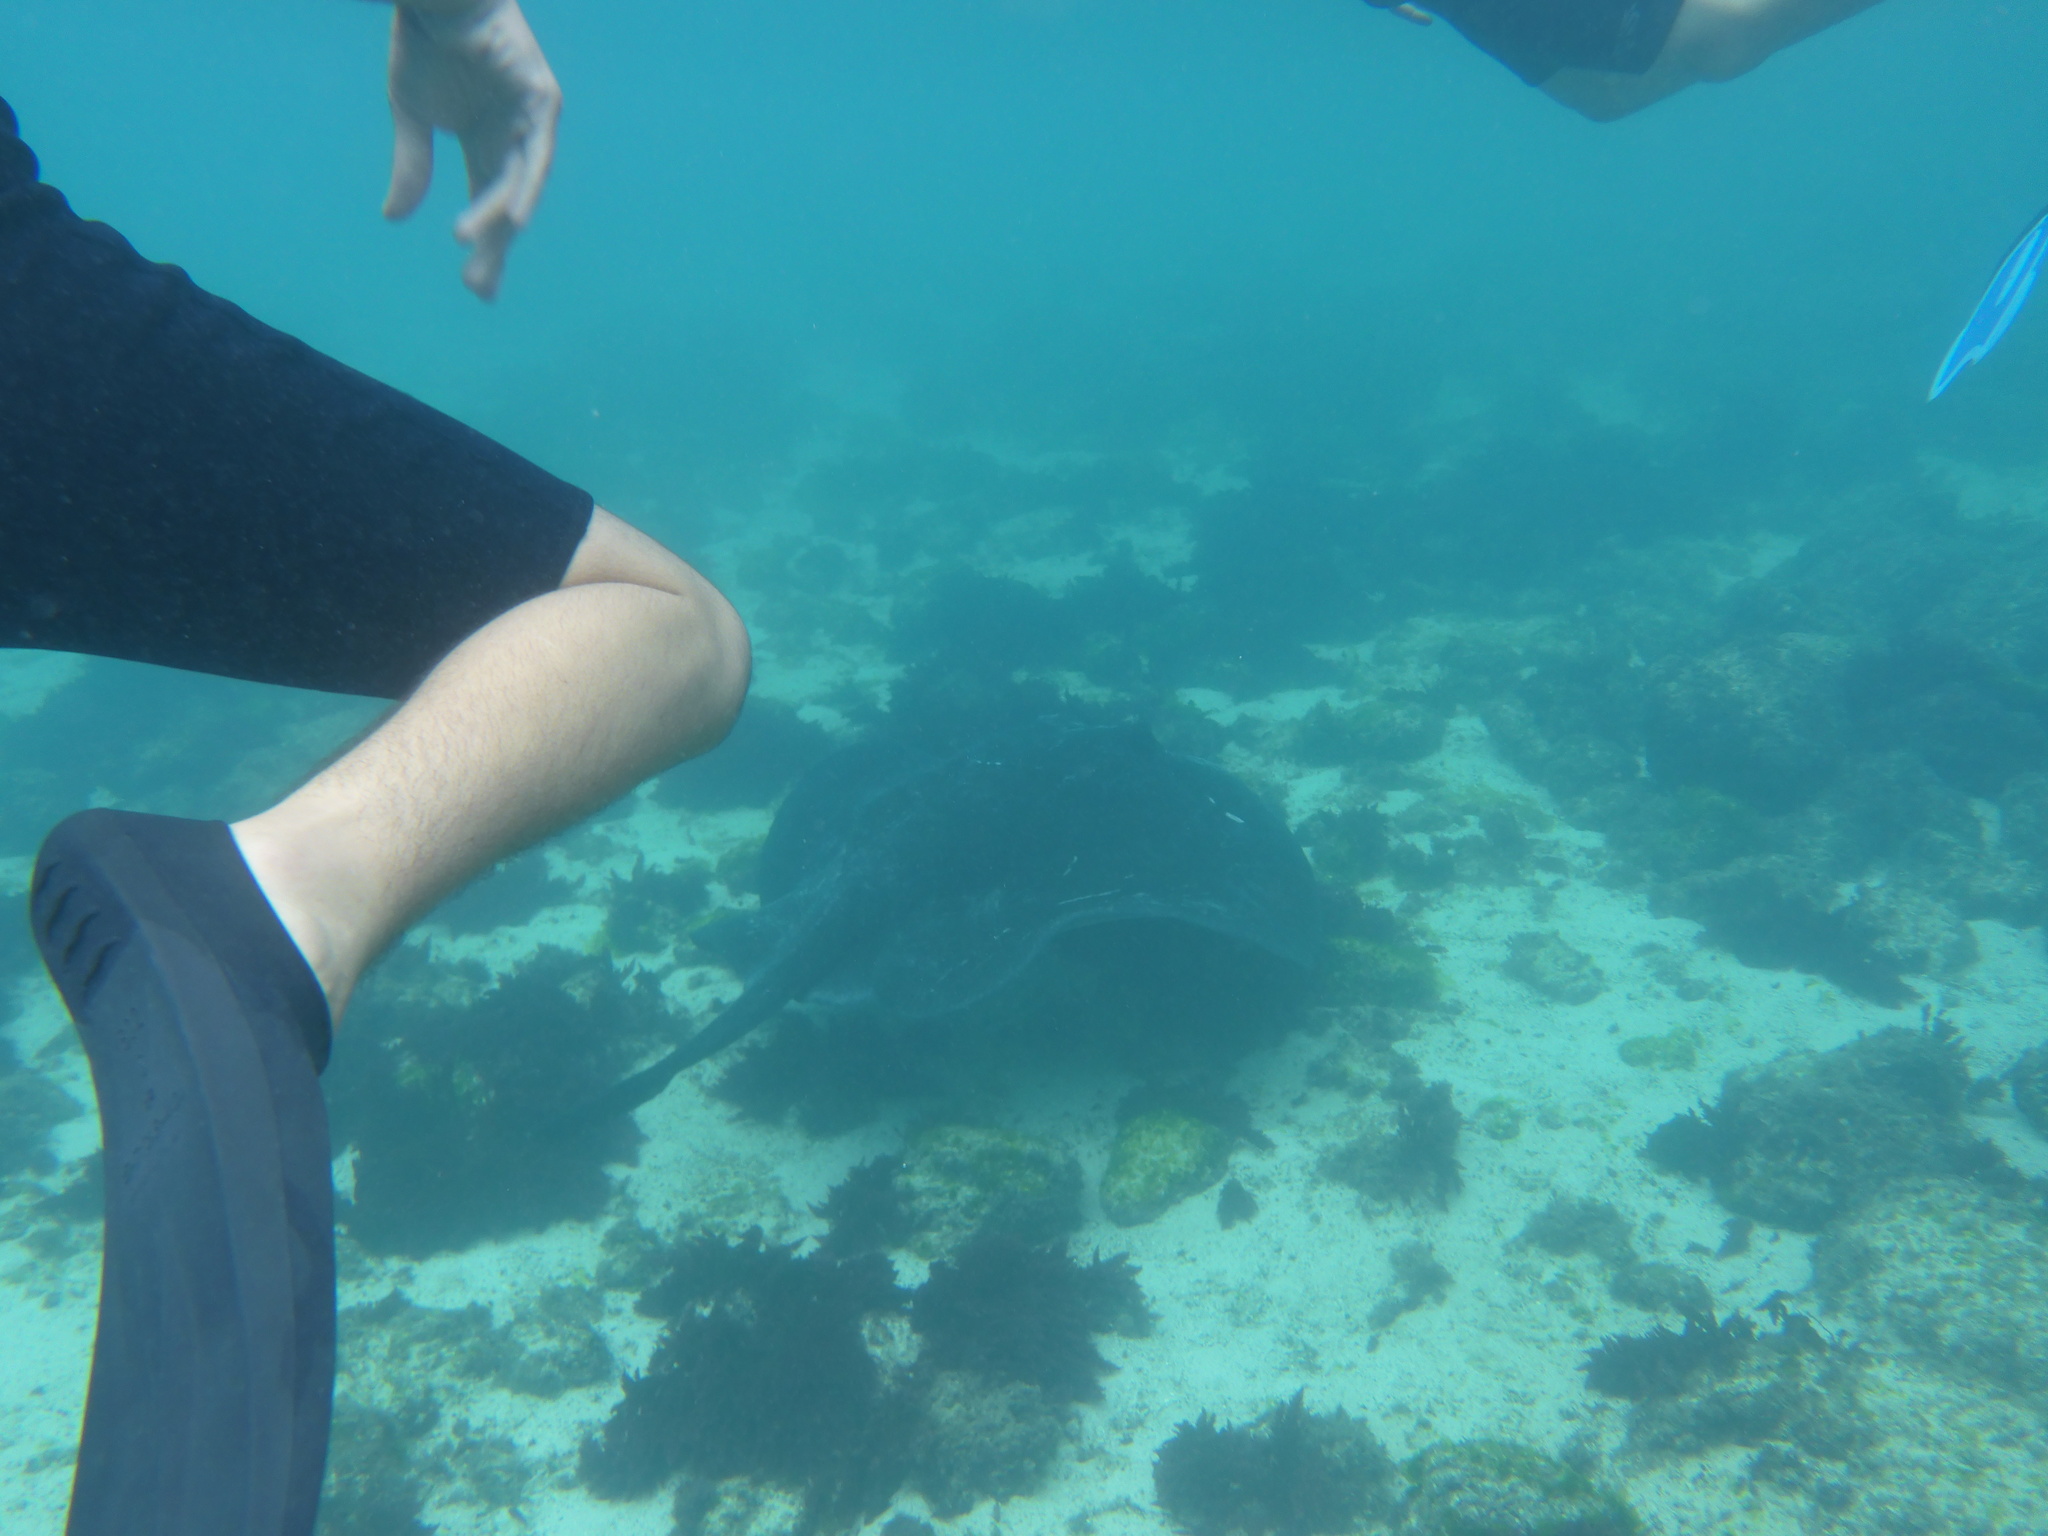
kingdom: Animalia
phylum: Chordata
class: Elasmobranchii
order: Myliobatiformes
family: Dasyatidae
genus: Taeniurops
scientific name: Taeniurops meyeni
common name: Black-blotched stingray
